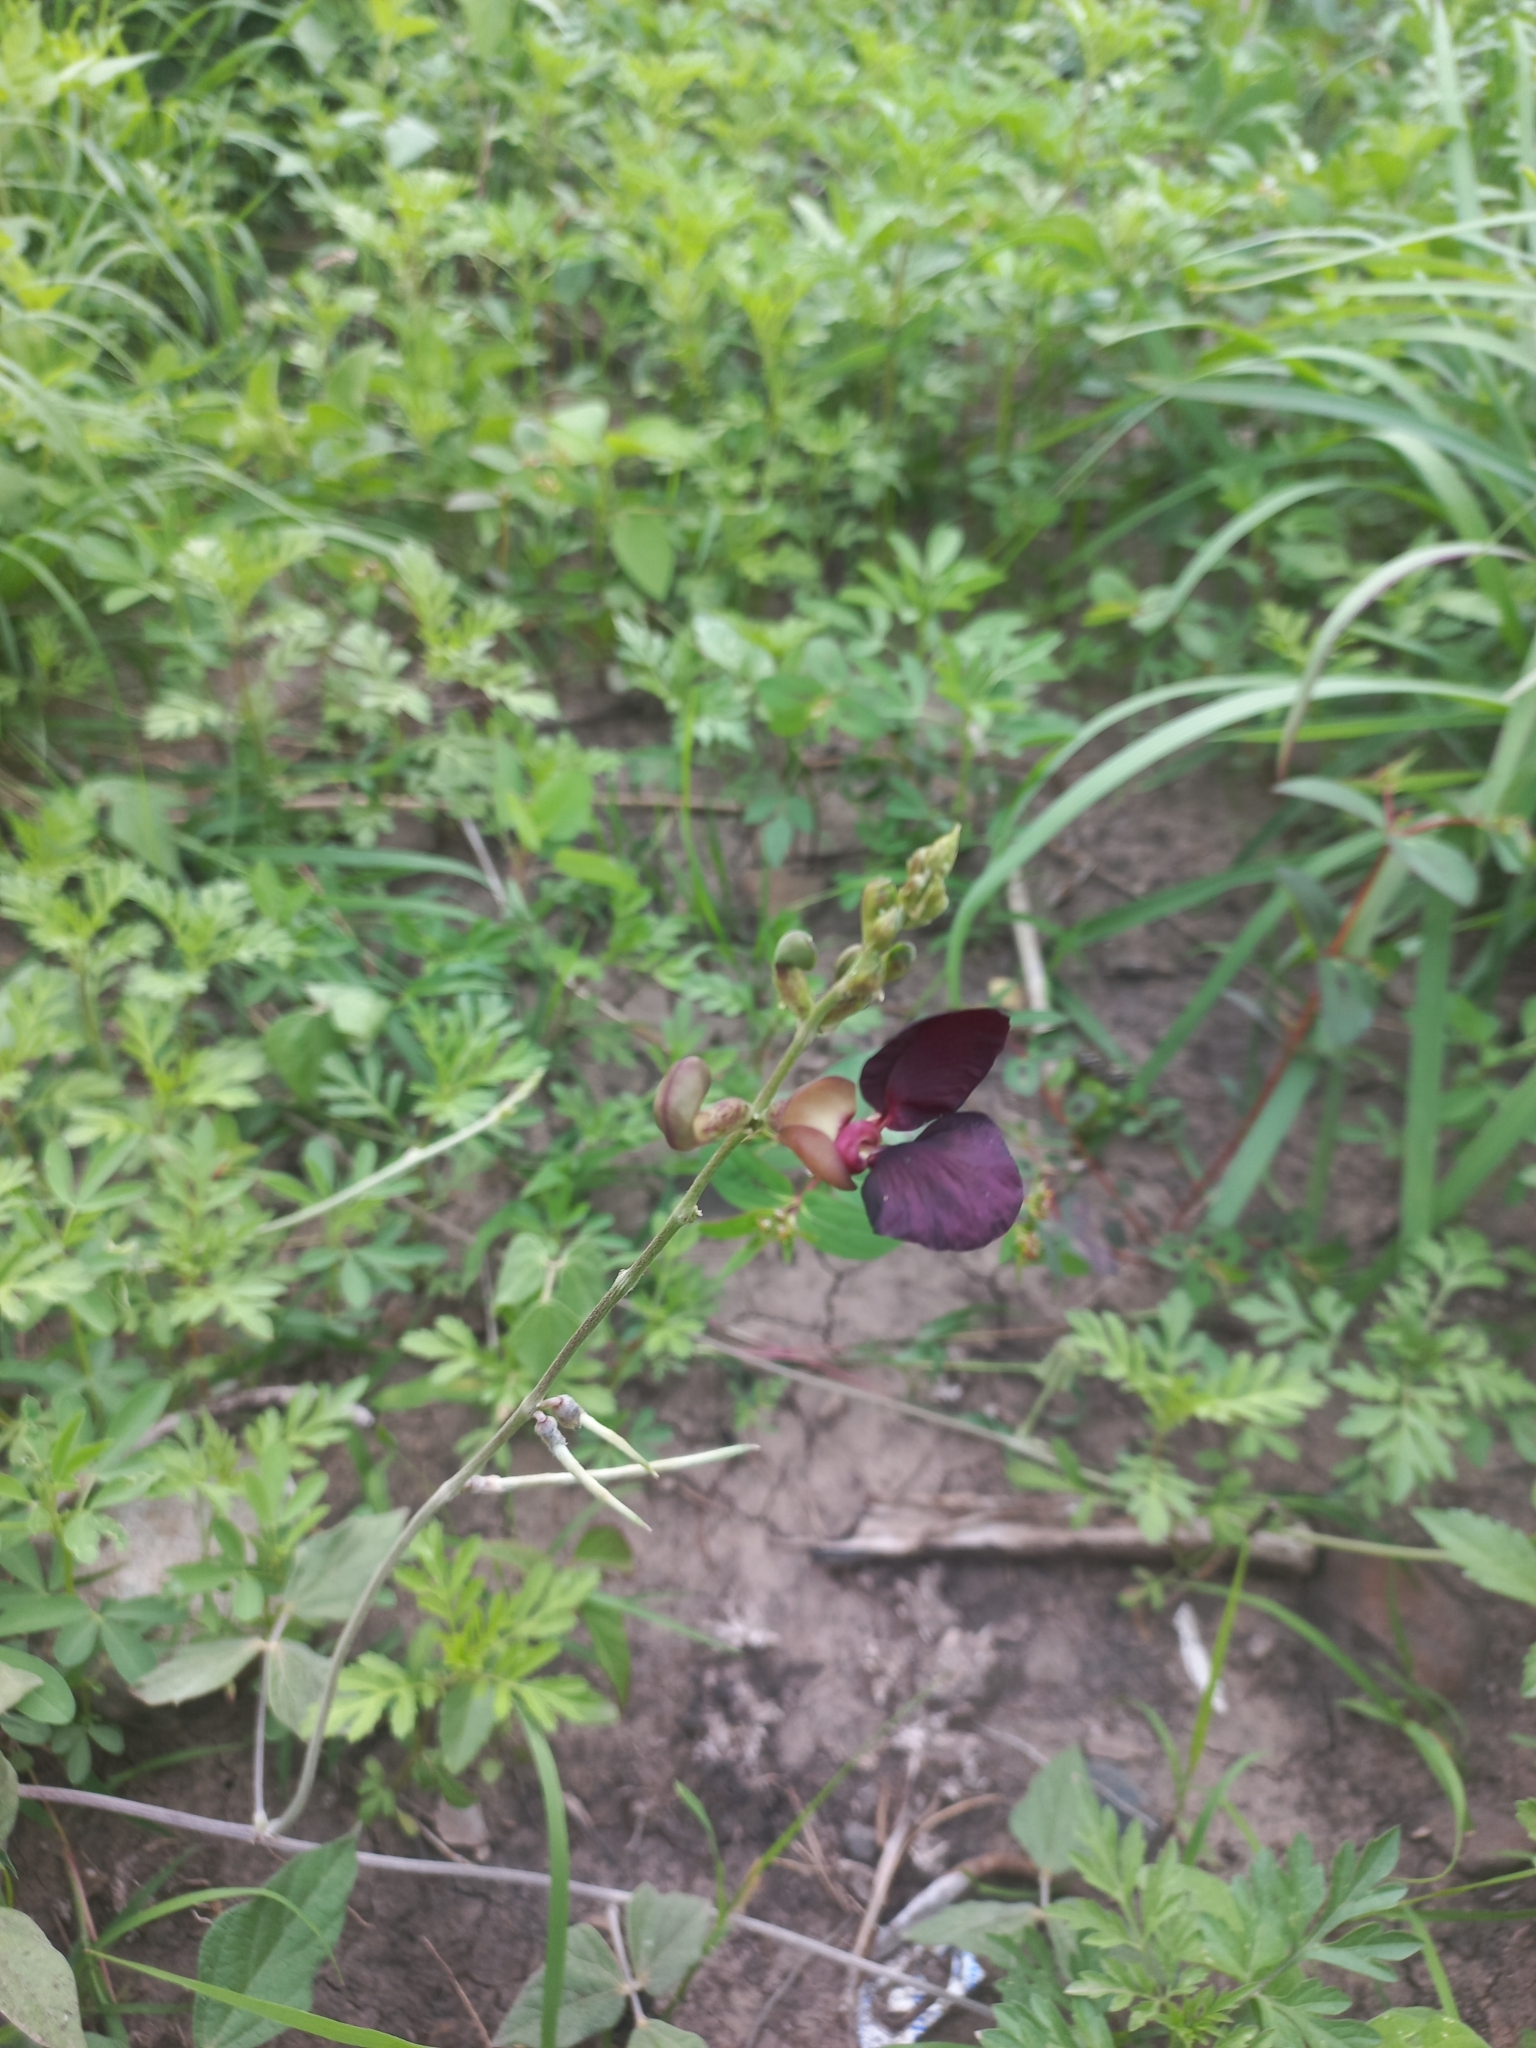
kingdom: Plantae
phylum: Tracheophyta
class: Magnoliopsida
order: Fabales
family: Fabaceae
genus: Macroptilium
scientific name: Macroptilium atropurpureum
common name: Purple bushbean
